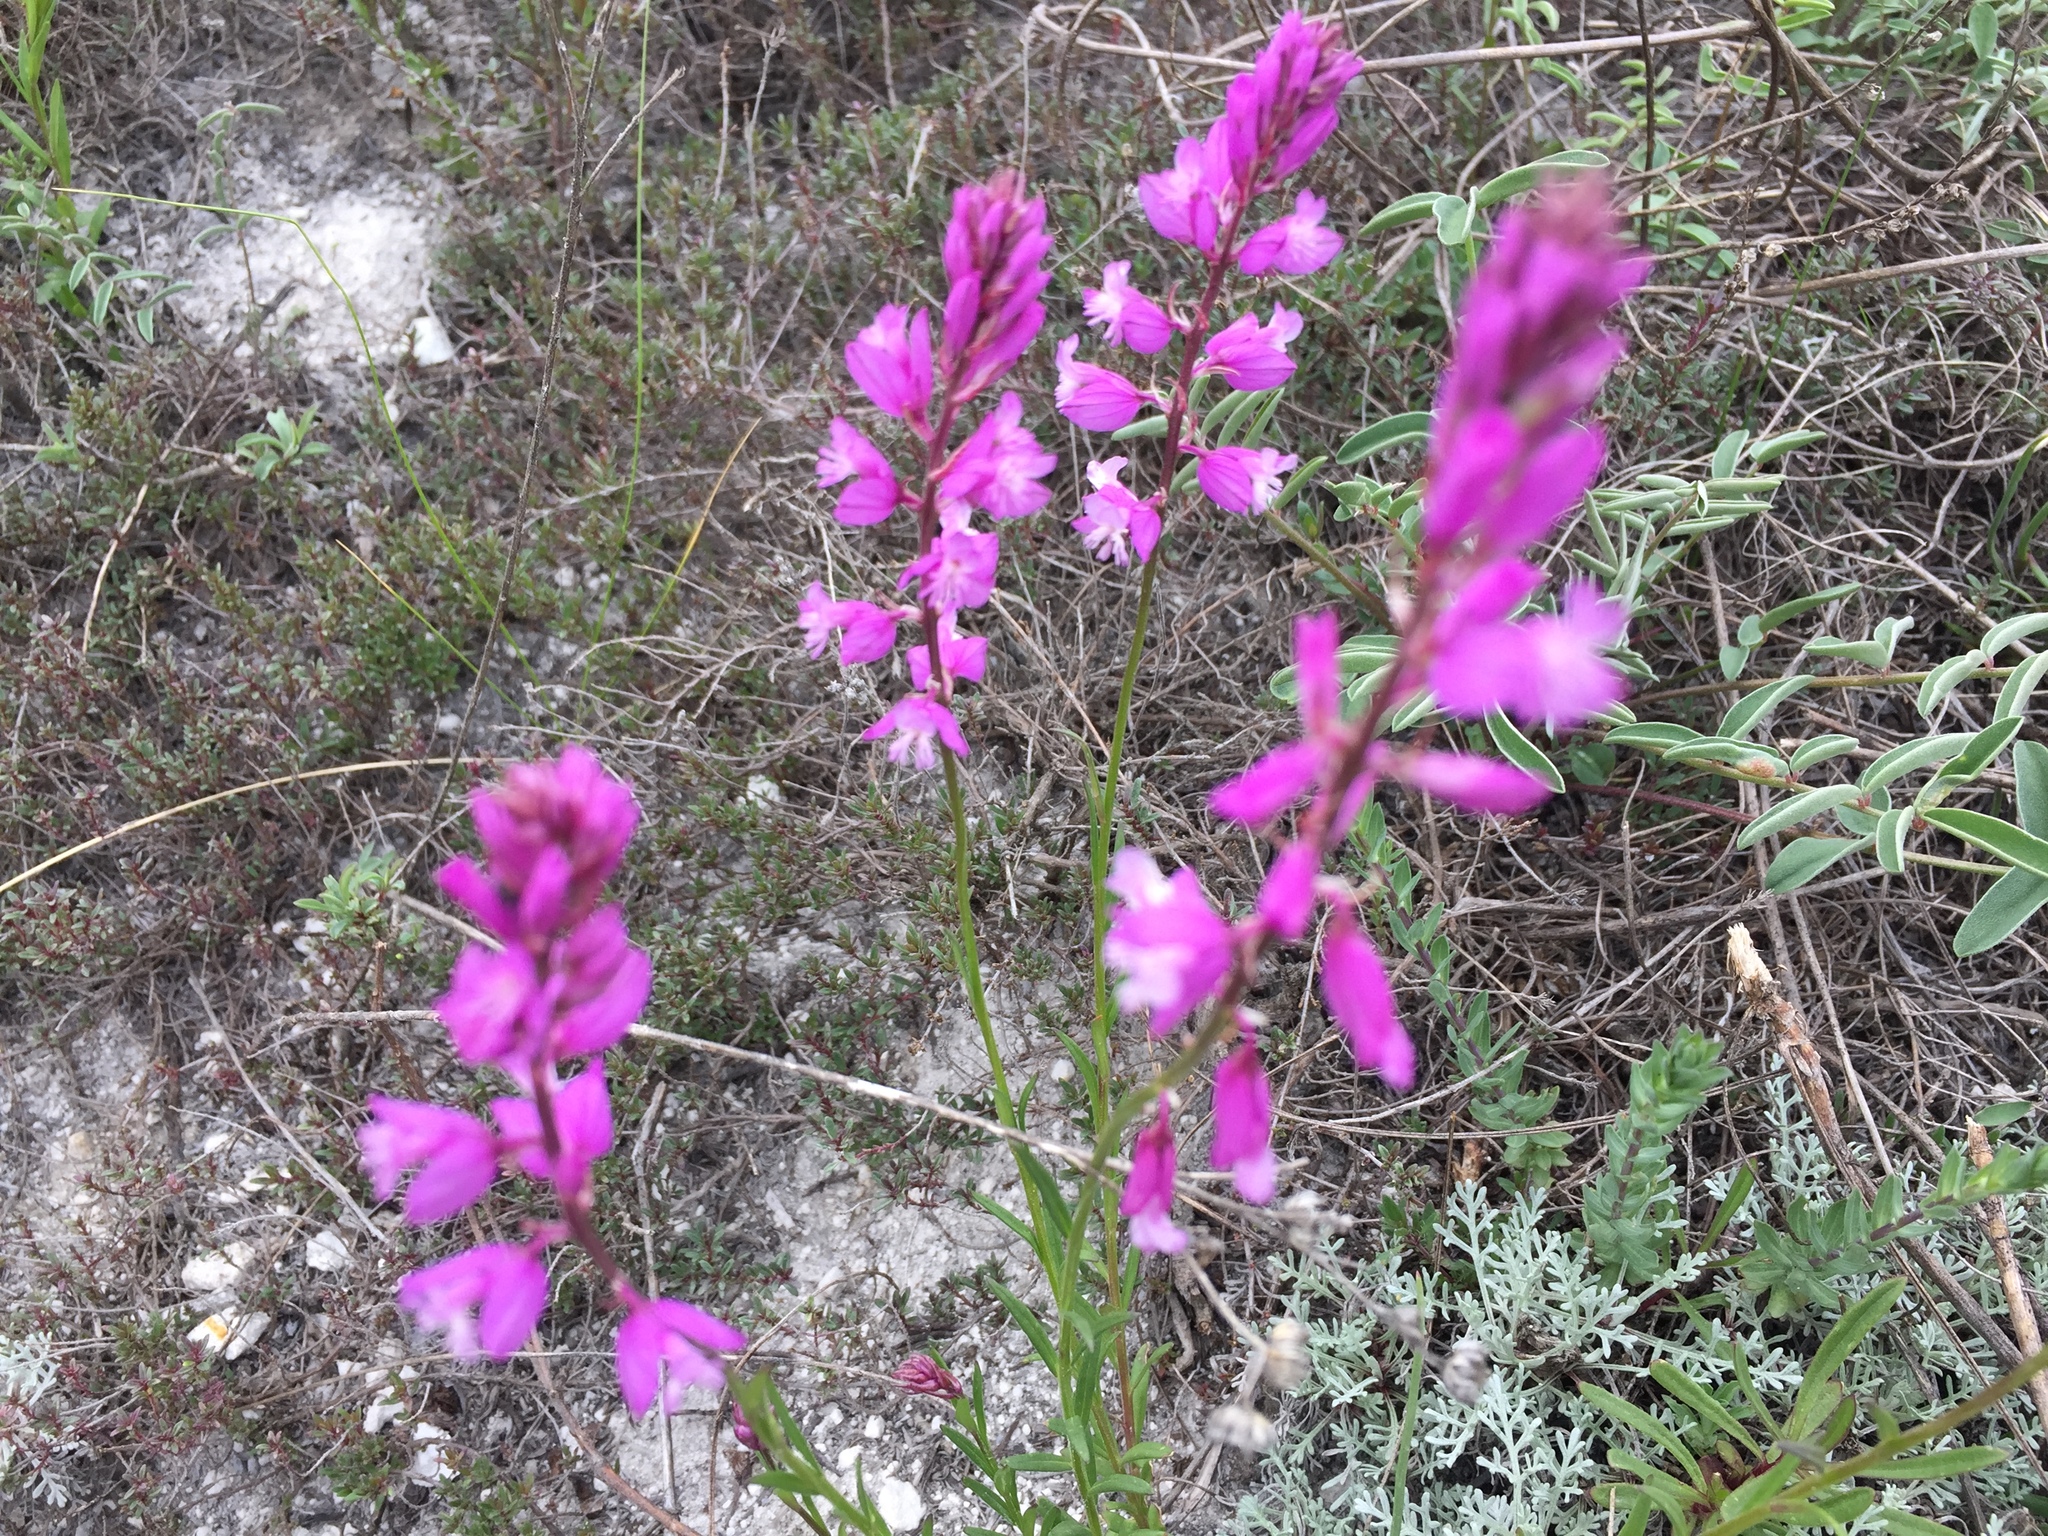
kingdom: Plantae
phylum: Tracheophyta
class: Magnoliopsida
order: Fabales
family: Polygalaceae
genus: Polygala
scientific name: Polygala nicaeensis
